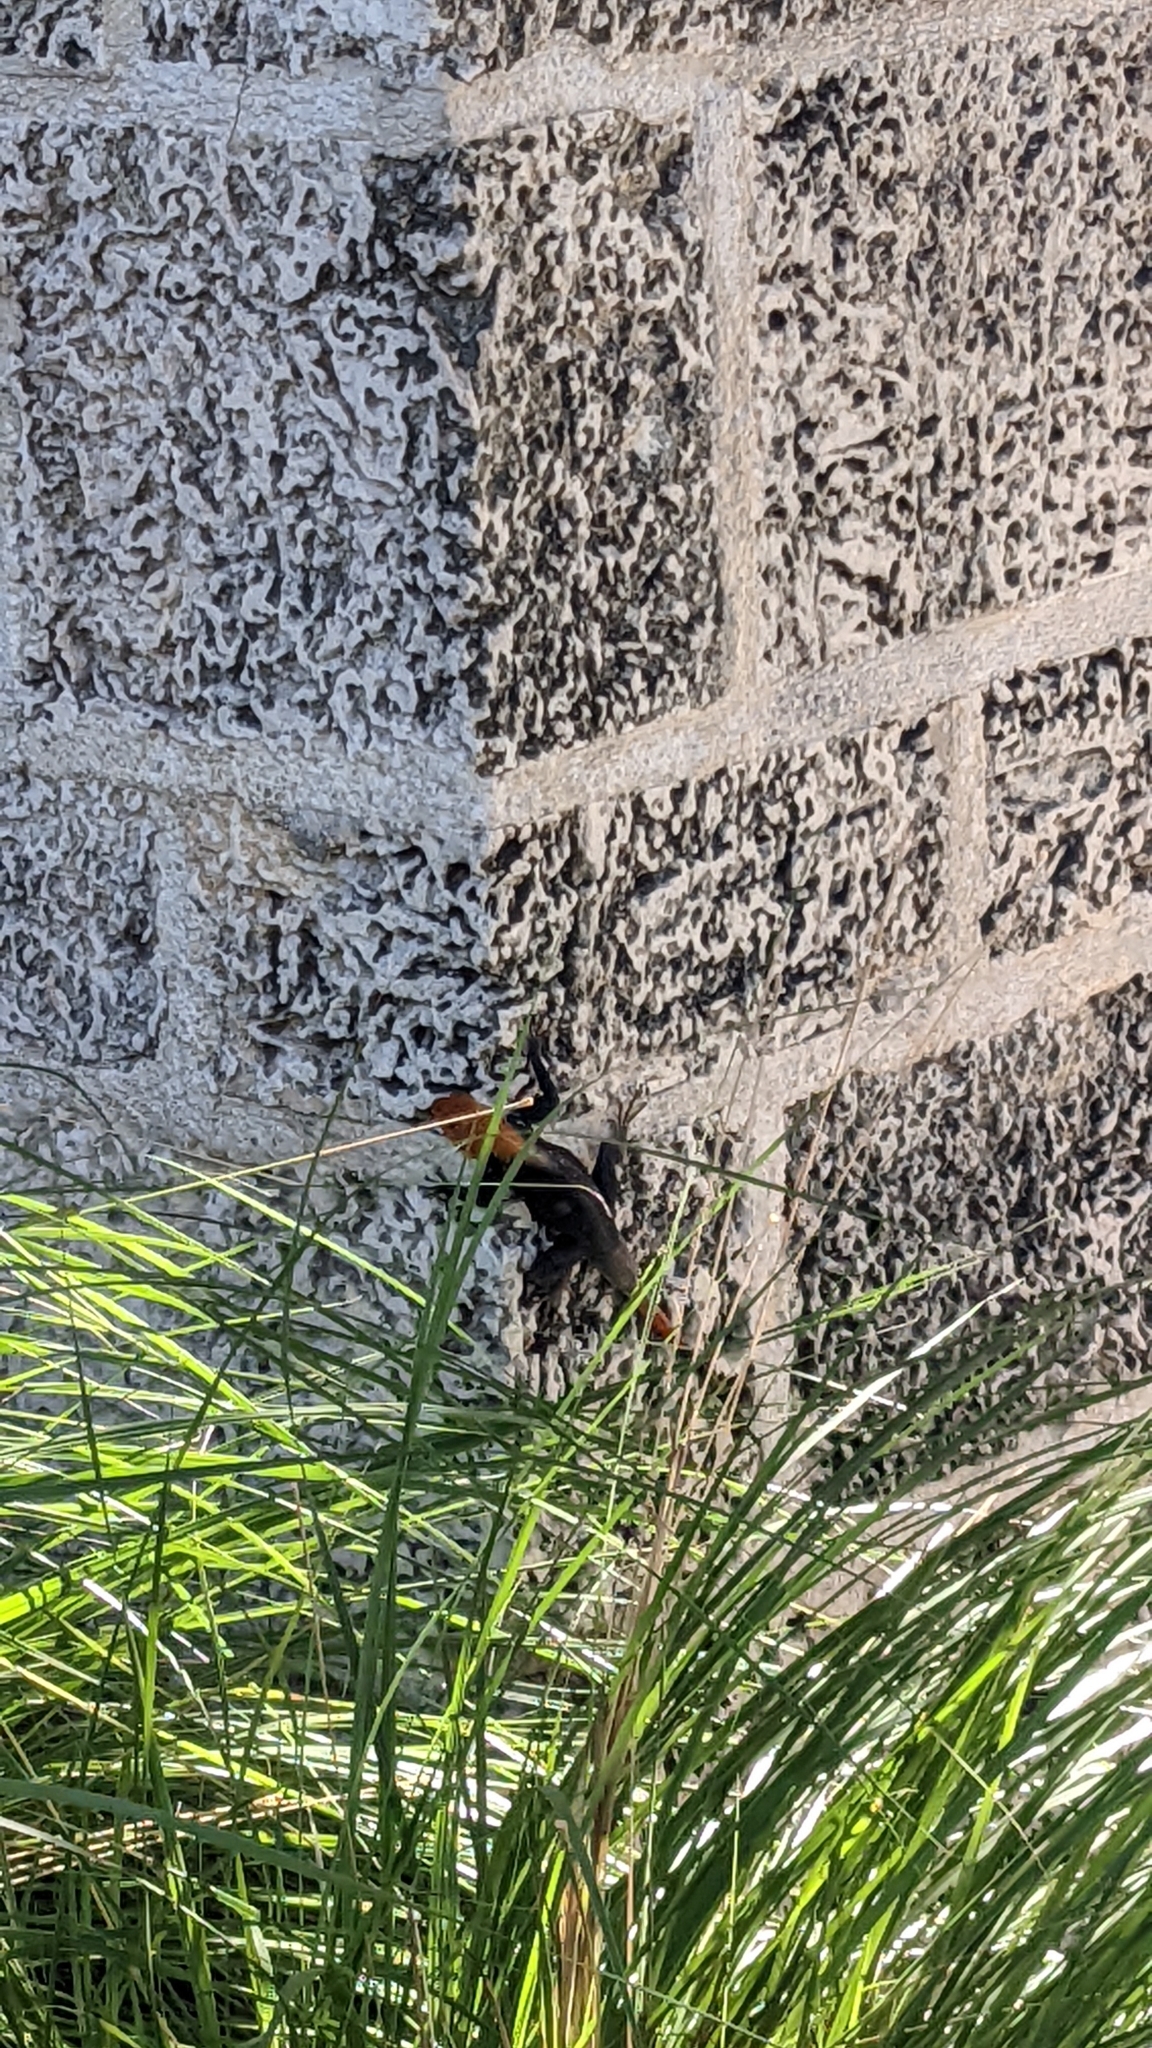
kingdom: Animalia
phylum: Chordata
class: Squamata
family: Agamidae
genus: Agama
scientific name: Agama picticauda
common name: Red-headed agama
